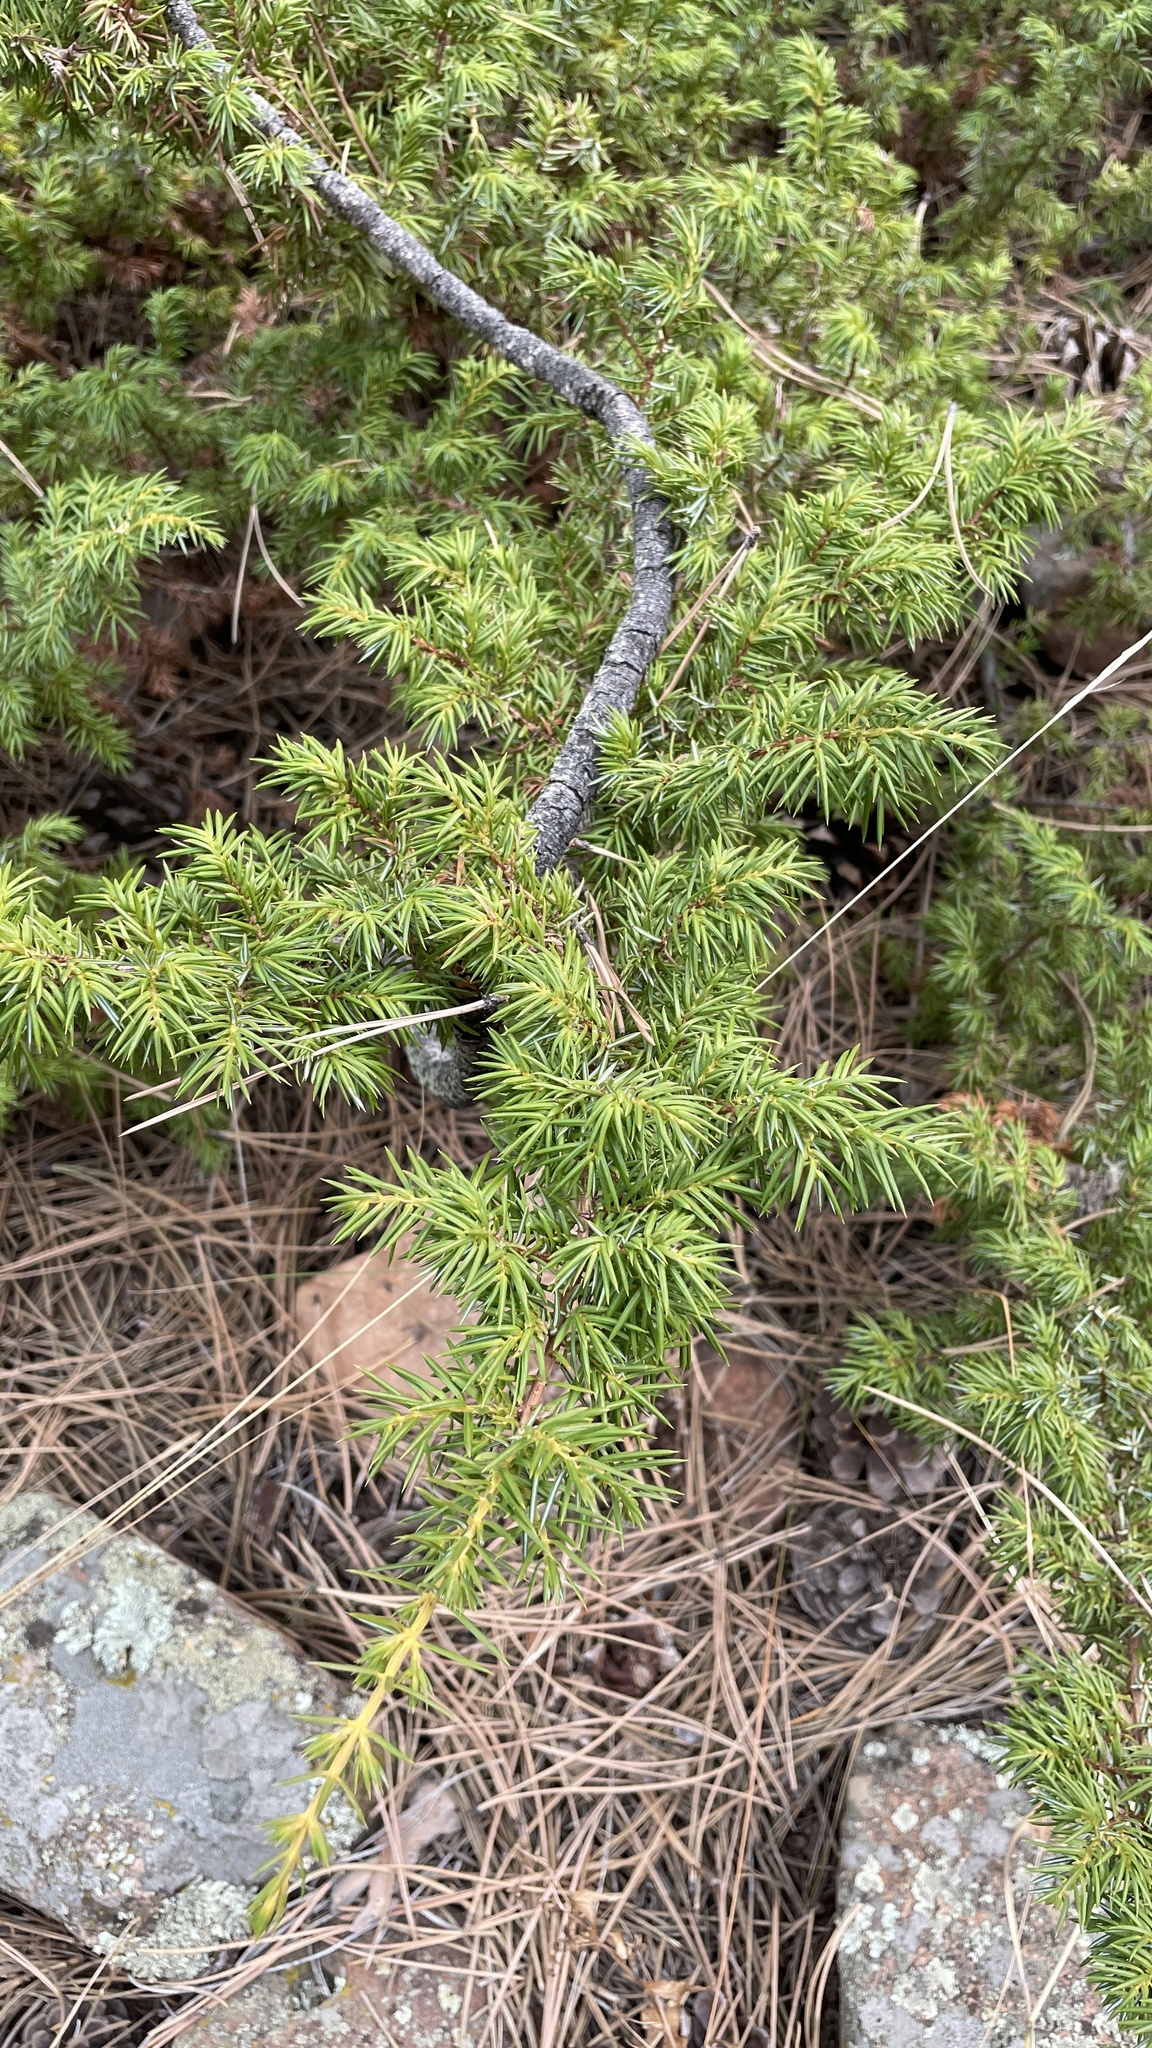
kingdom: Plantae
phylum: Tracheophyta
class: Pinopsida
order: Pinales
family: Cupressaceae
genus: Juniperus
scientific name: Juniperus communis
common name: Common juniper
